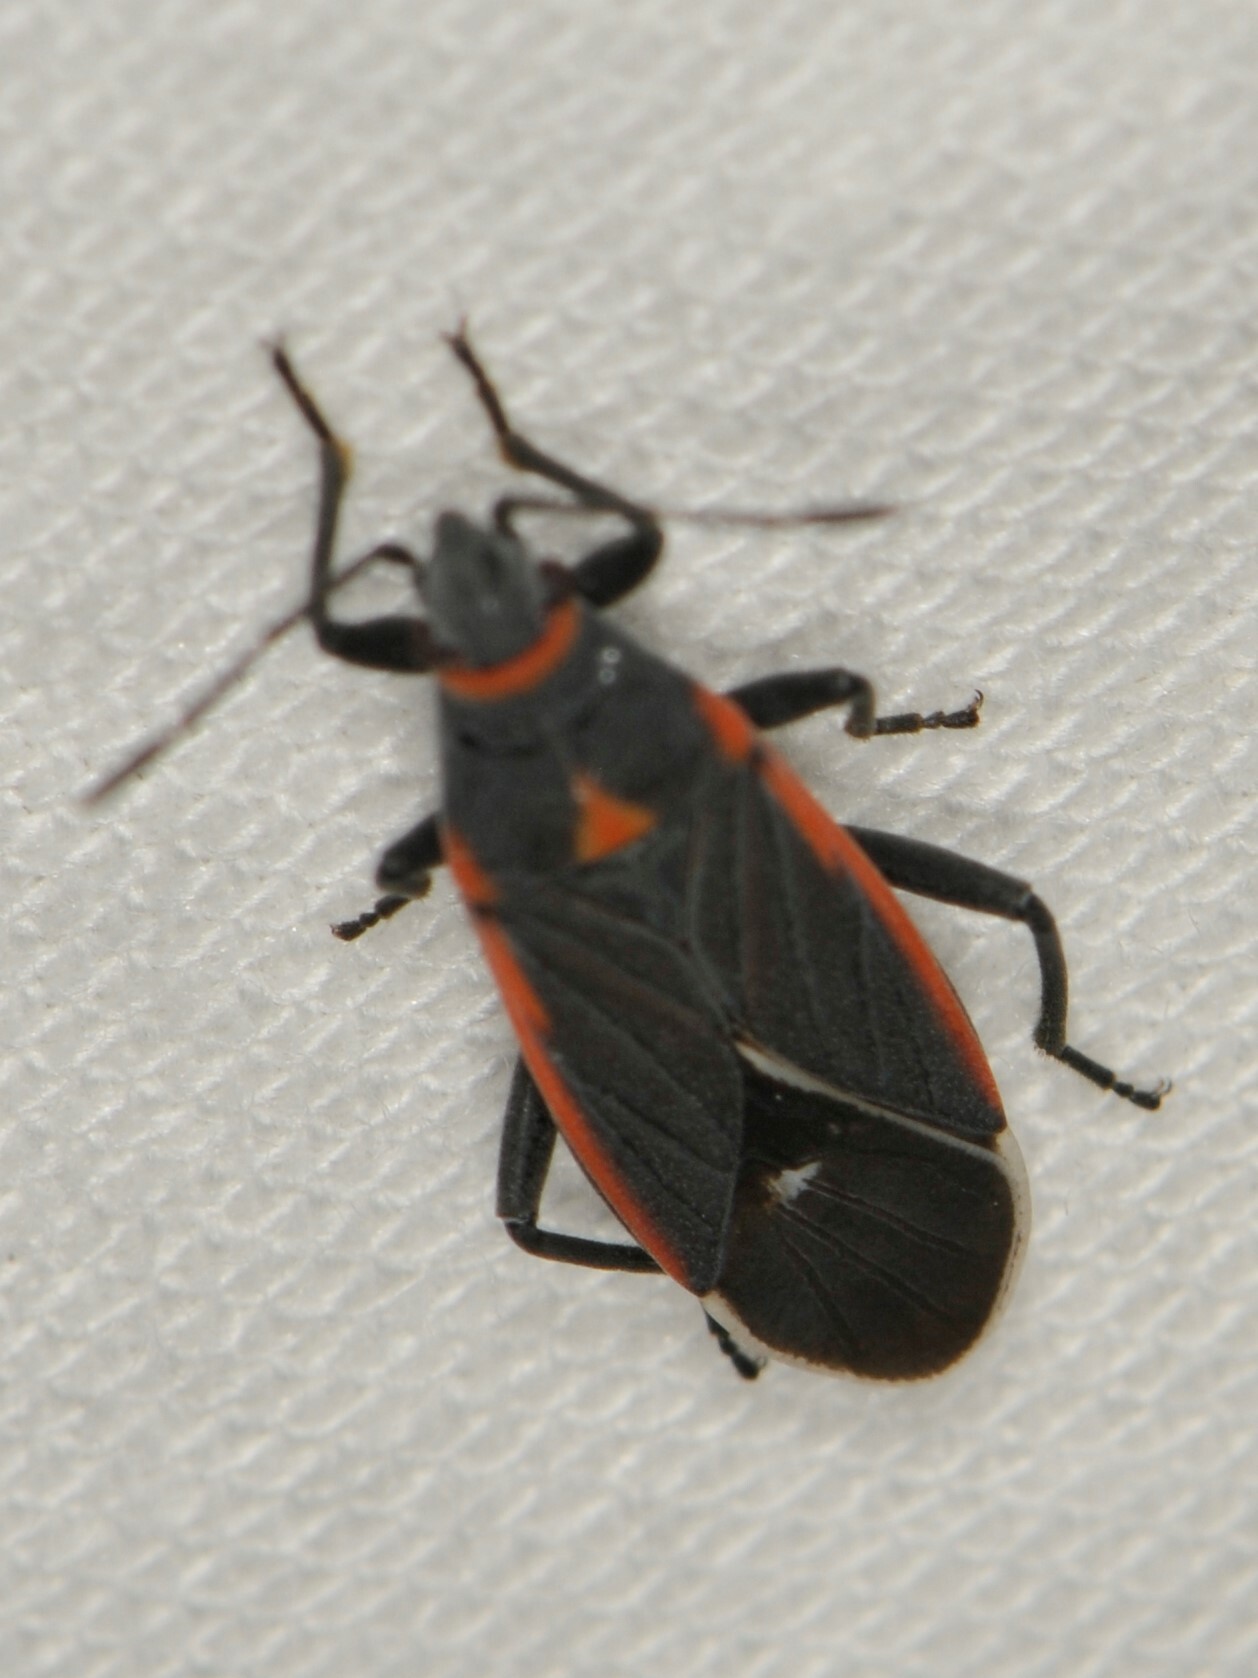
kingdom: Animalia
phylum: Arthropoda
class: Insecta
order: Hemiptera
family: Lygaeidae
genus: Melacoryphus
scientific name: Melacoryphus lateralis
